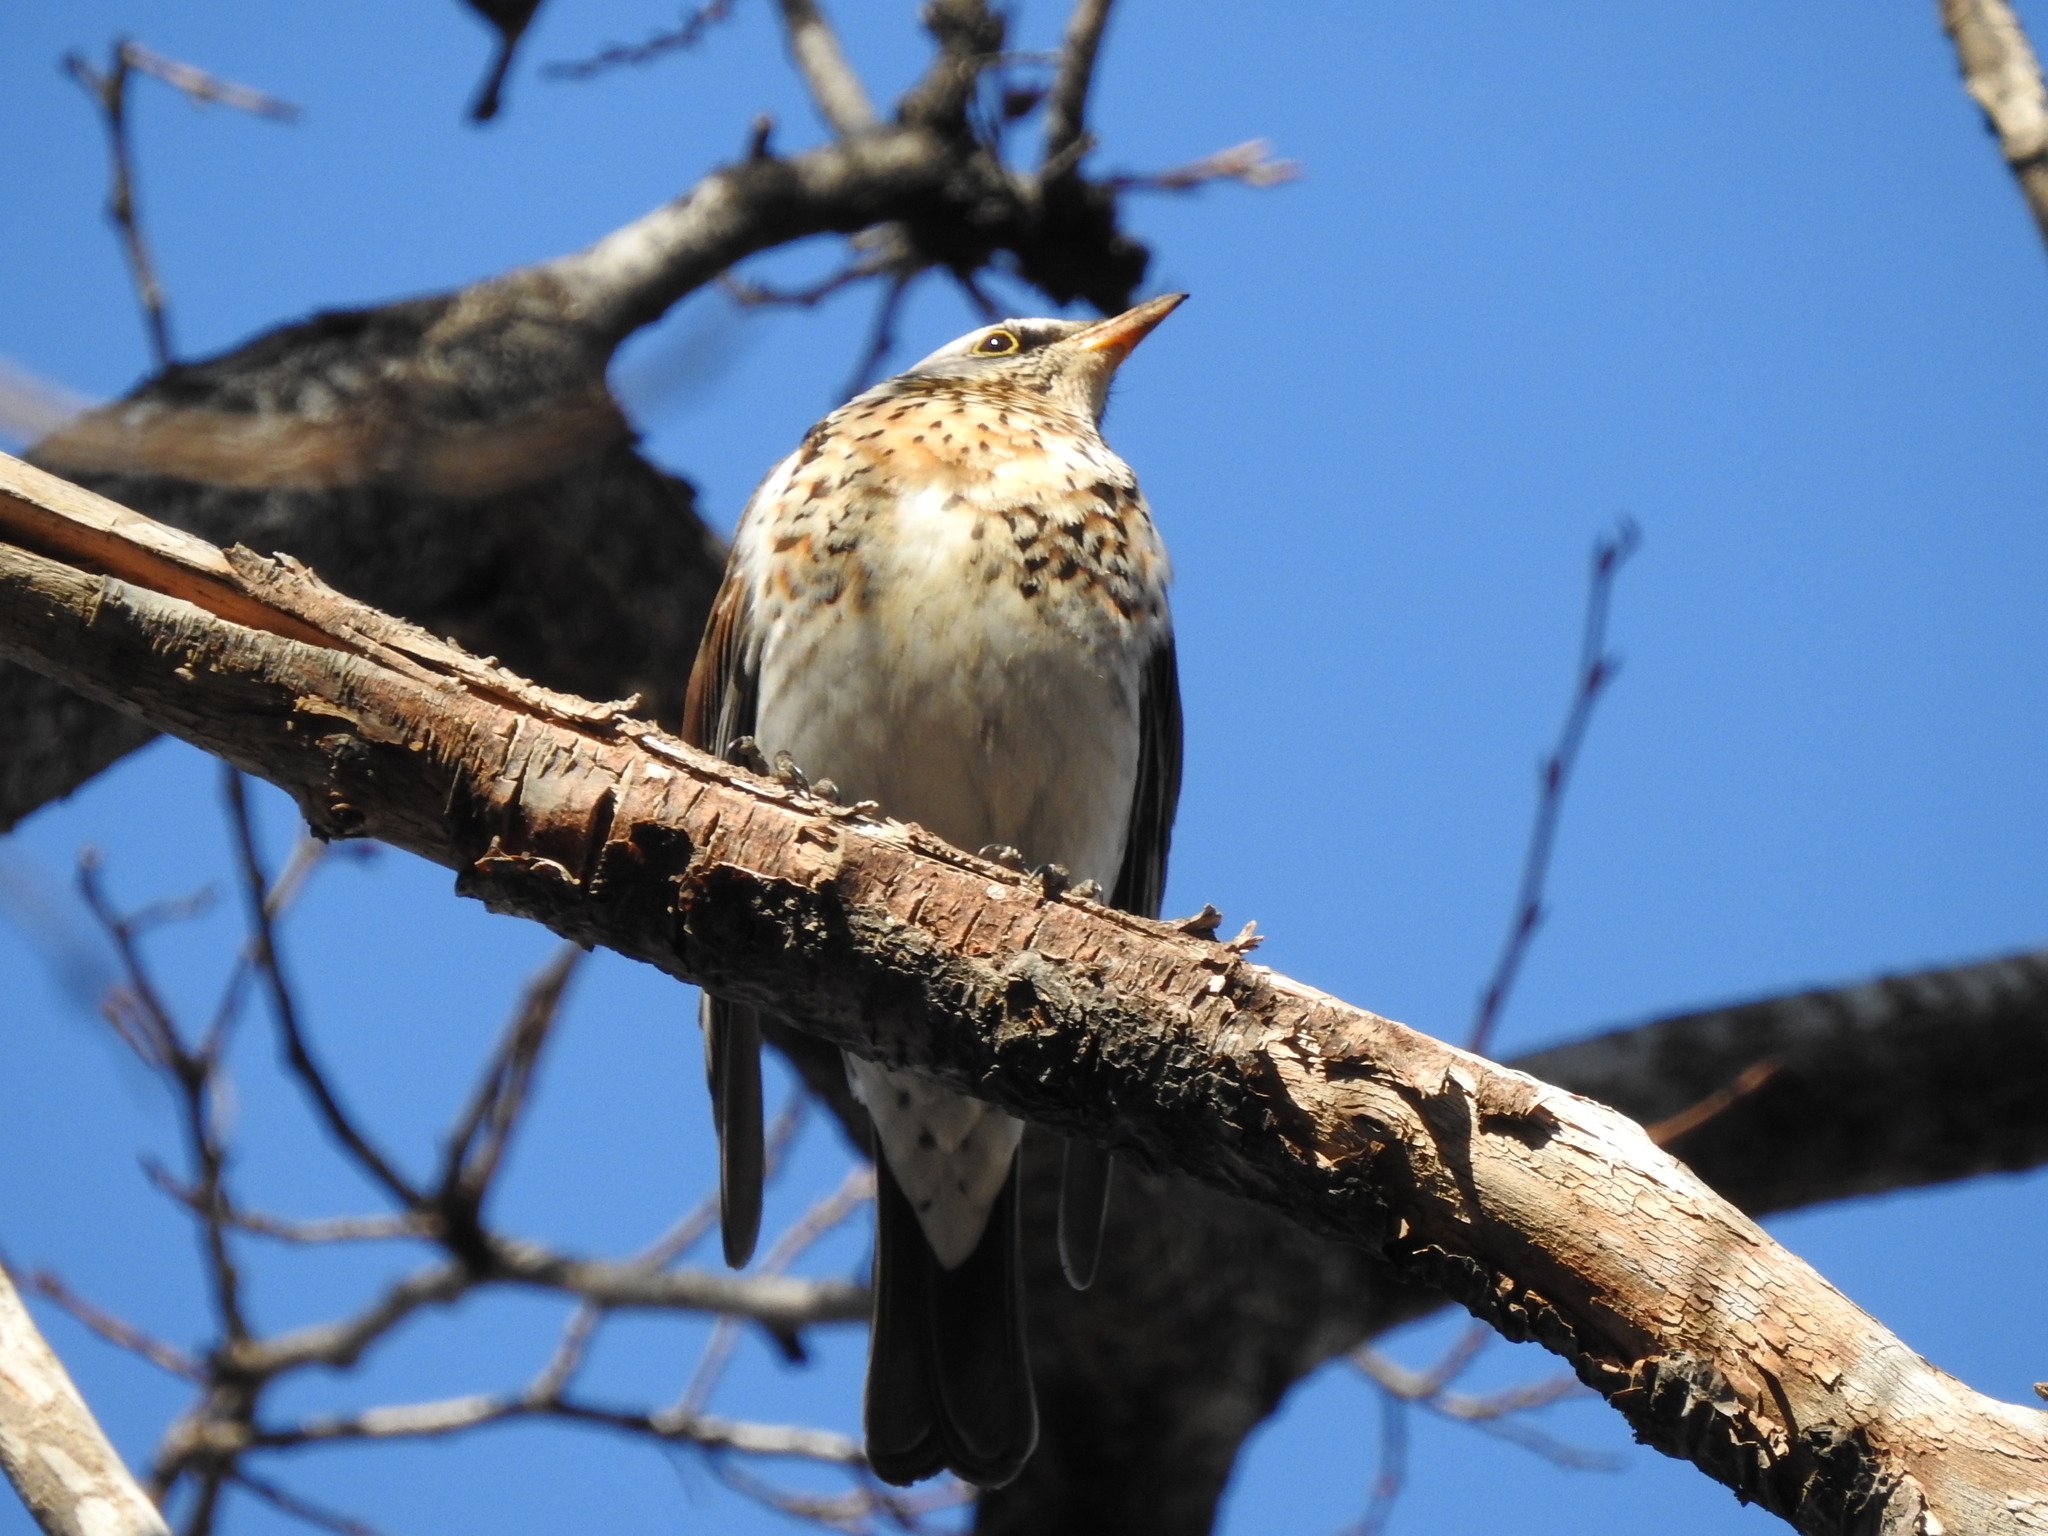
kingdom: Animalia
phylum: Chordata
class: Aves
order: Passeriformes
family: Turdidae
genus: Turdus
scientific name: Turdus pilaris
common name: Fieldfare
